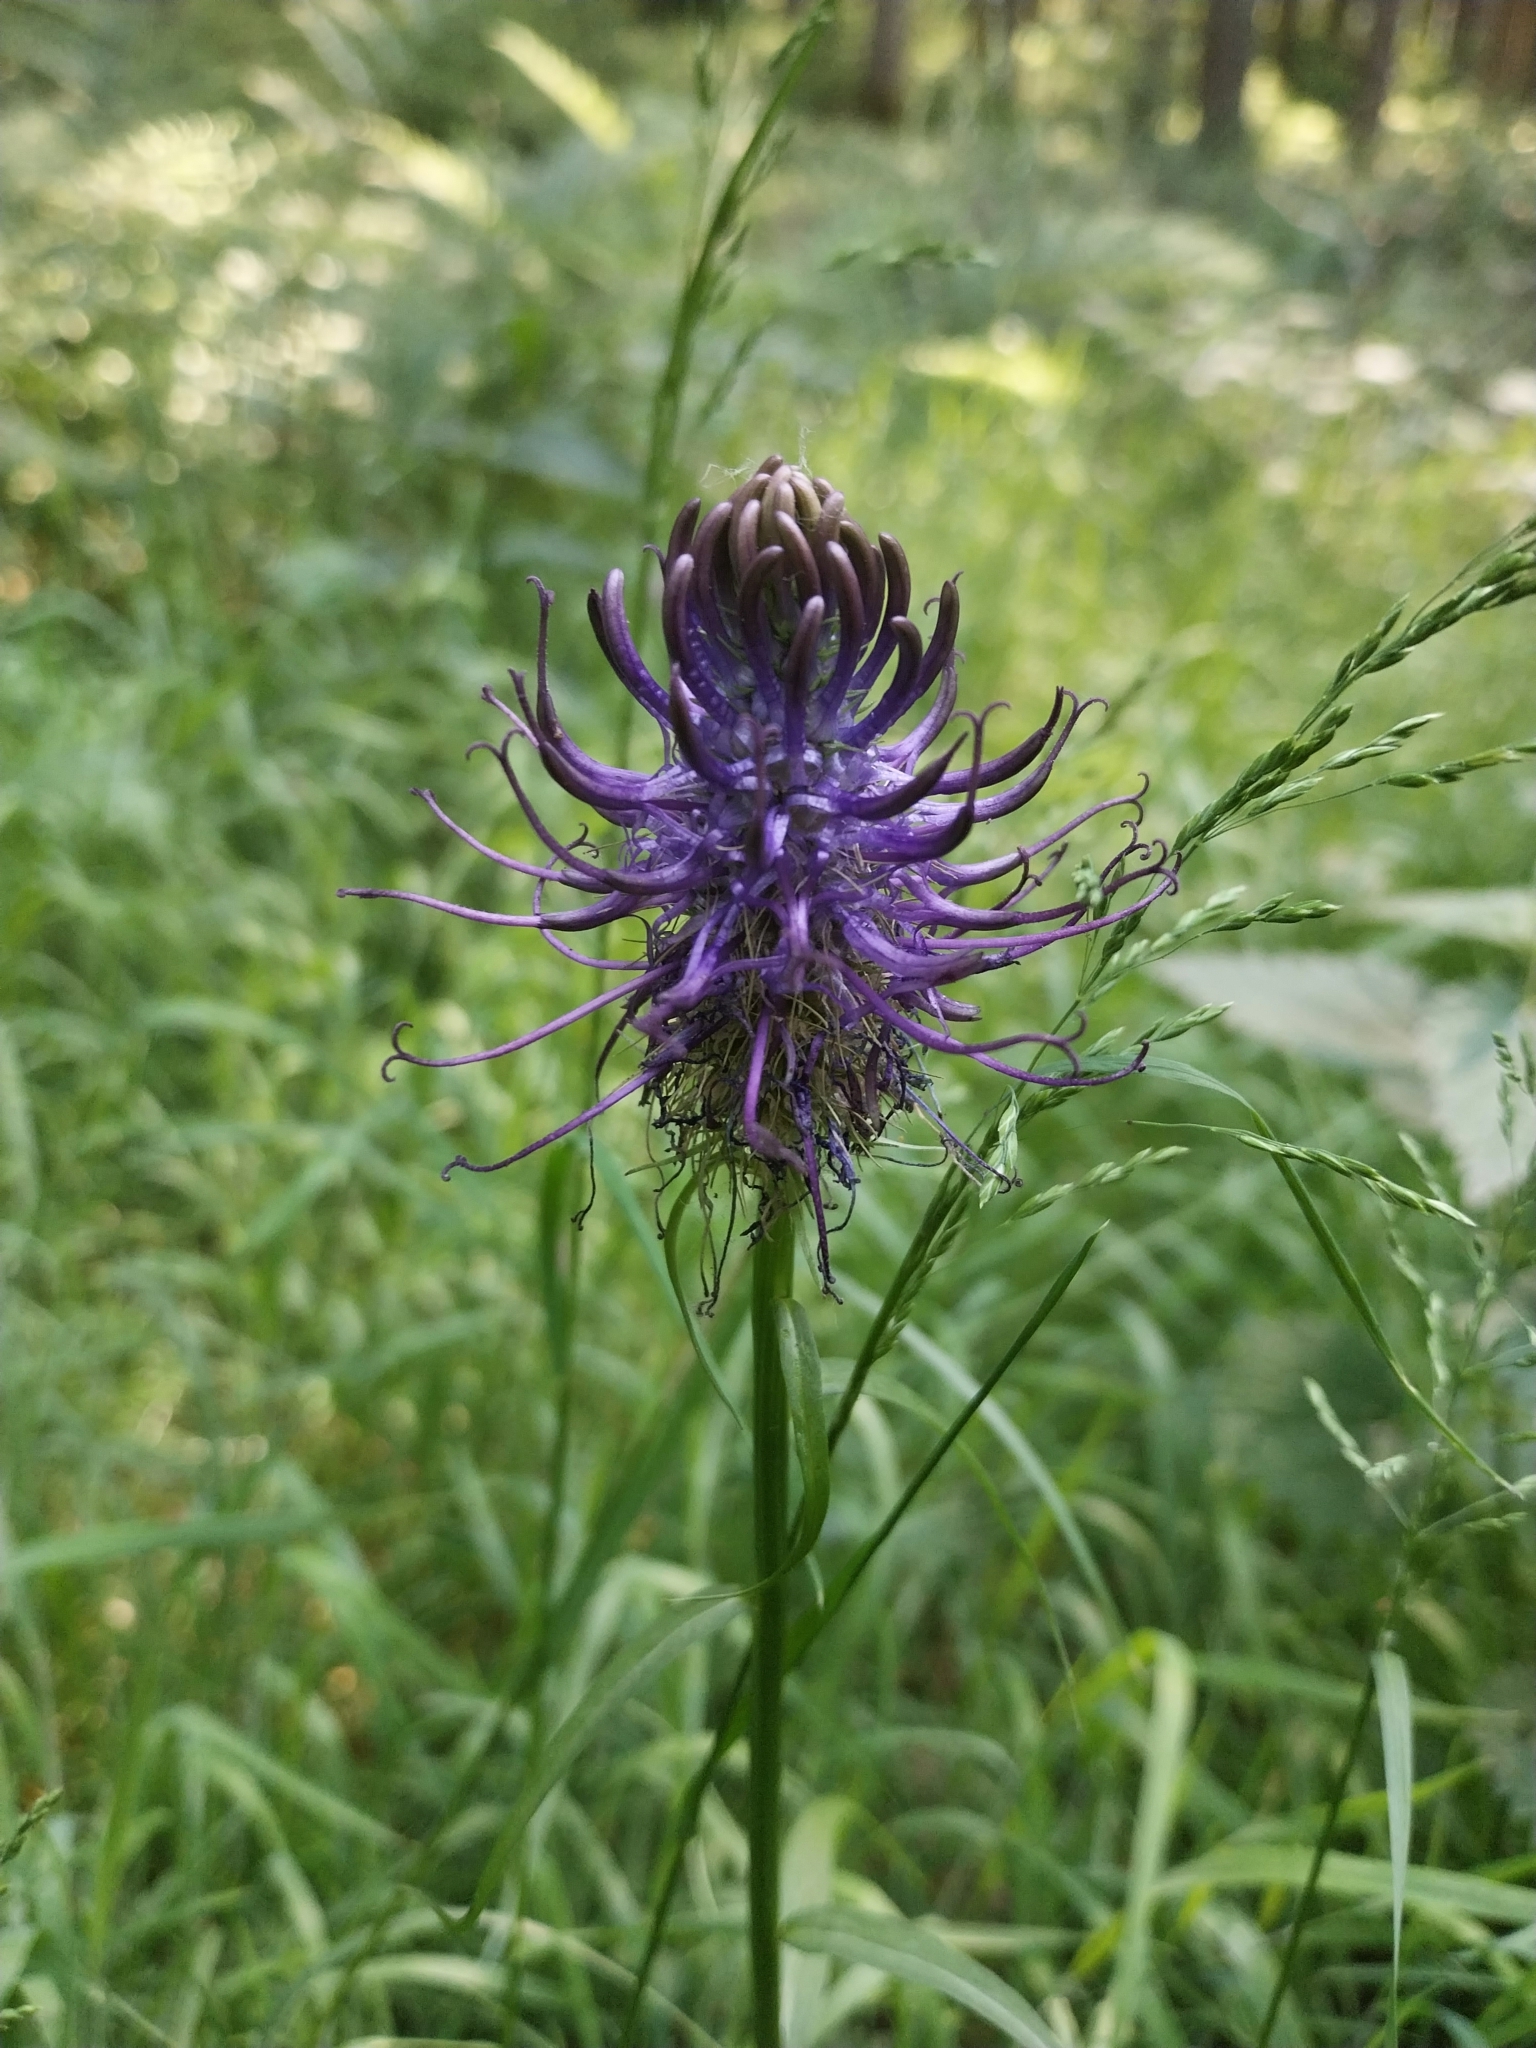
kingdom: Plantae
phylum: Tracheophyta
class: Magnoliopsida
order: Asterales
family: Campanulaceae
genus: Phyteuma
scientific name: Phyteuma nigrum
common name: Black rampion
